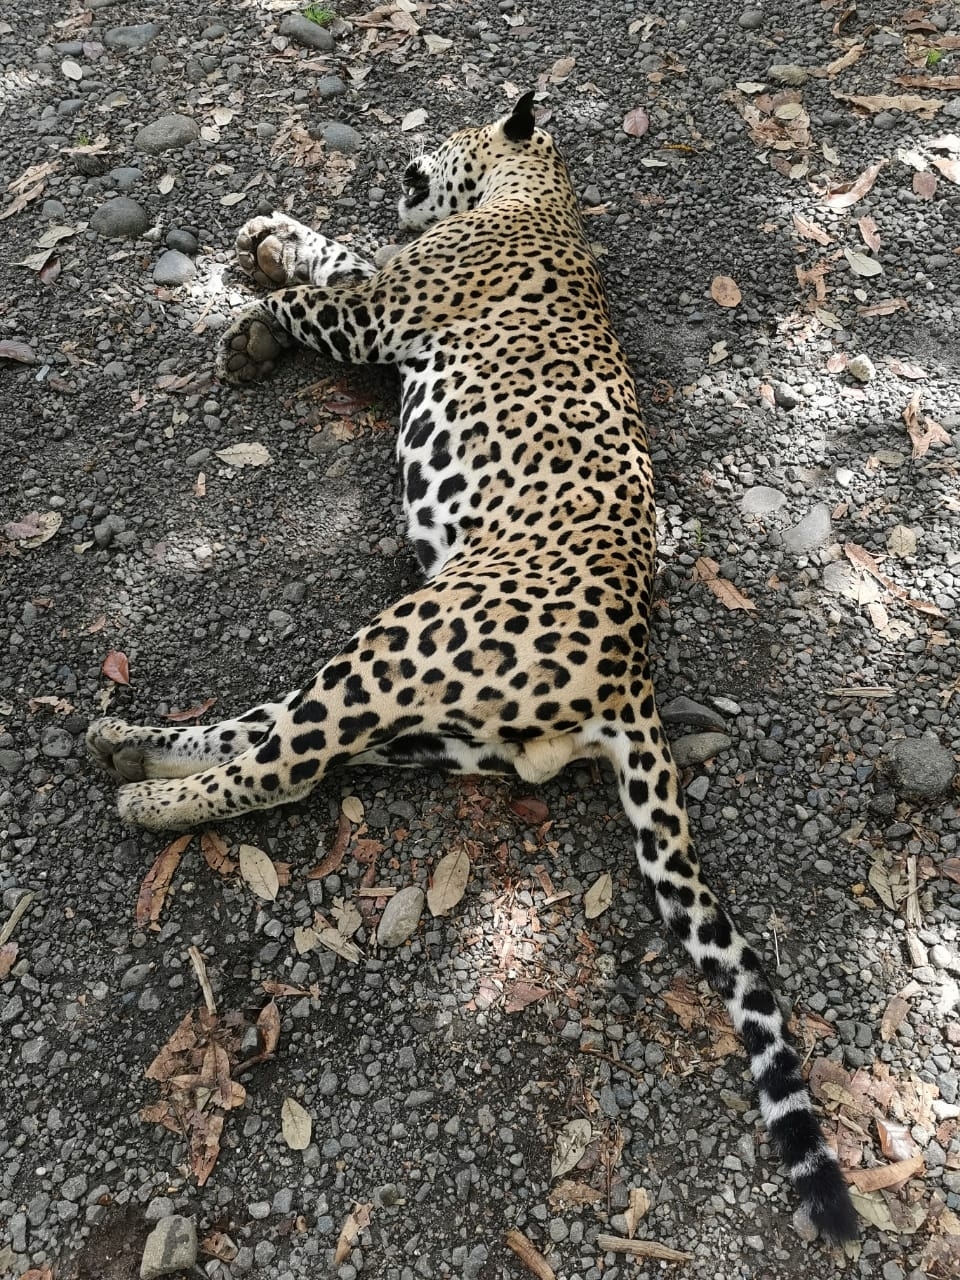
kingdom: Animalia
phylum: Chordata
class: Mammalia
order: Carnivora
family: Felidae
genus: Panthera
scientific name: Panthera onca
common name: Jaguar
